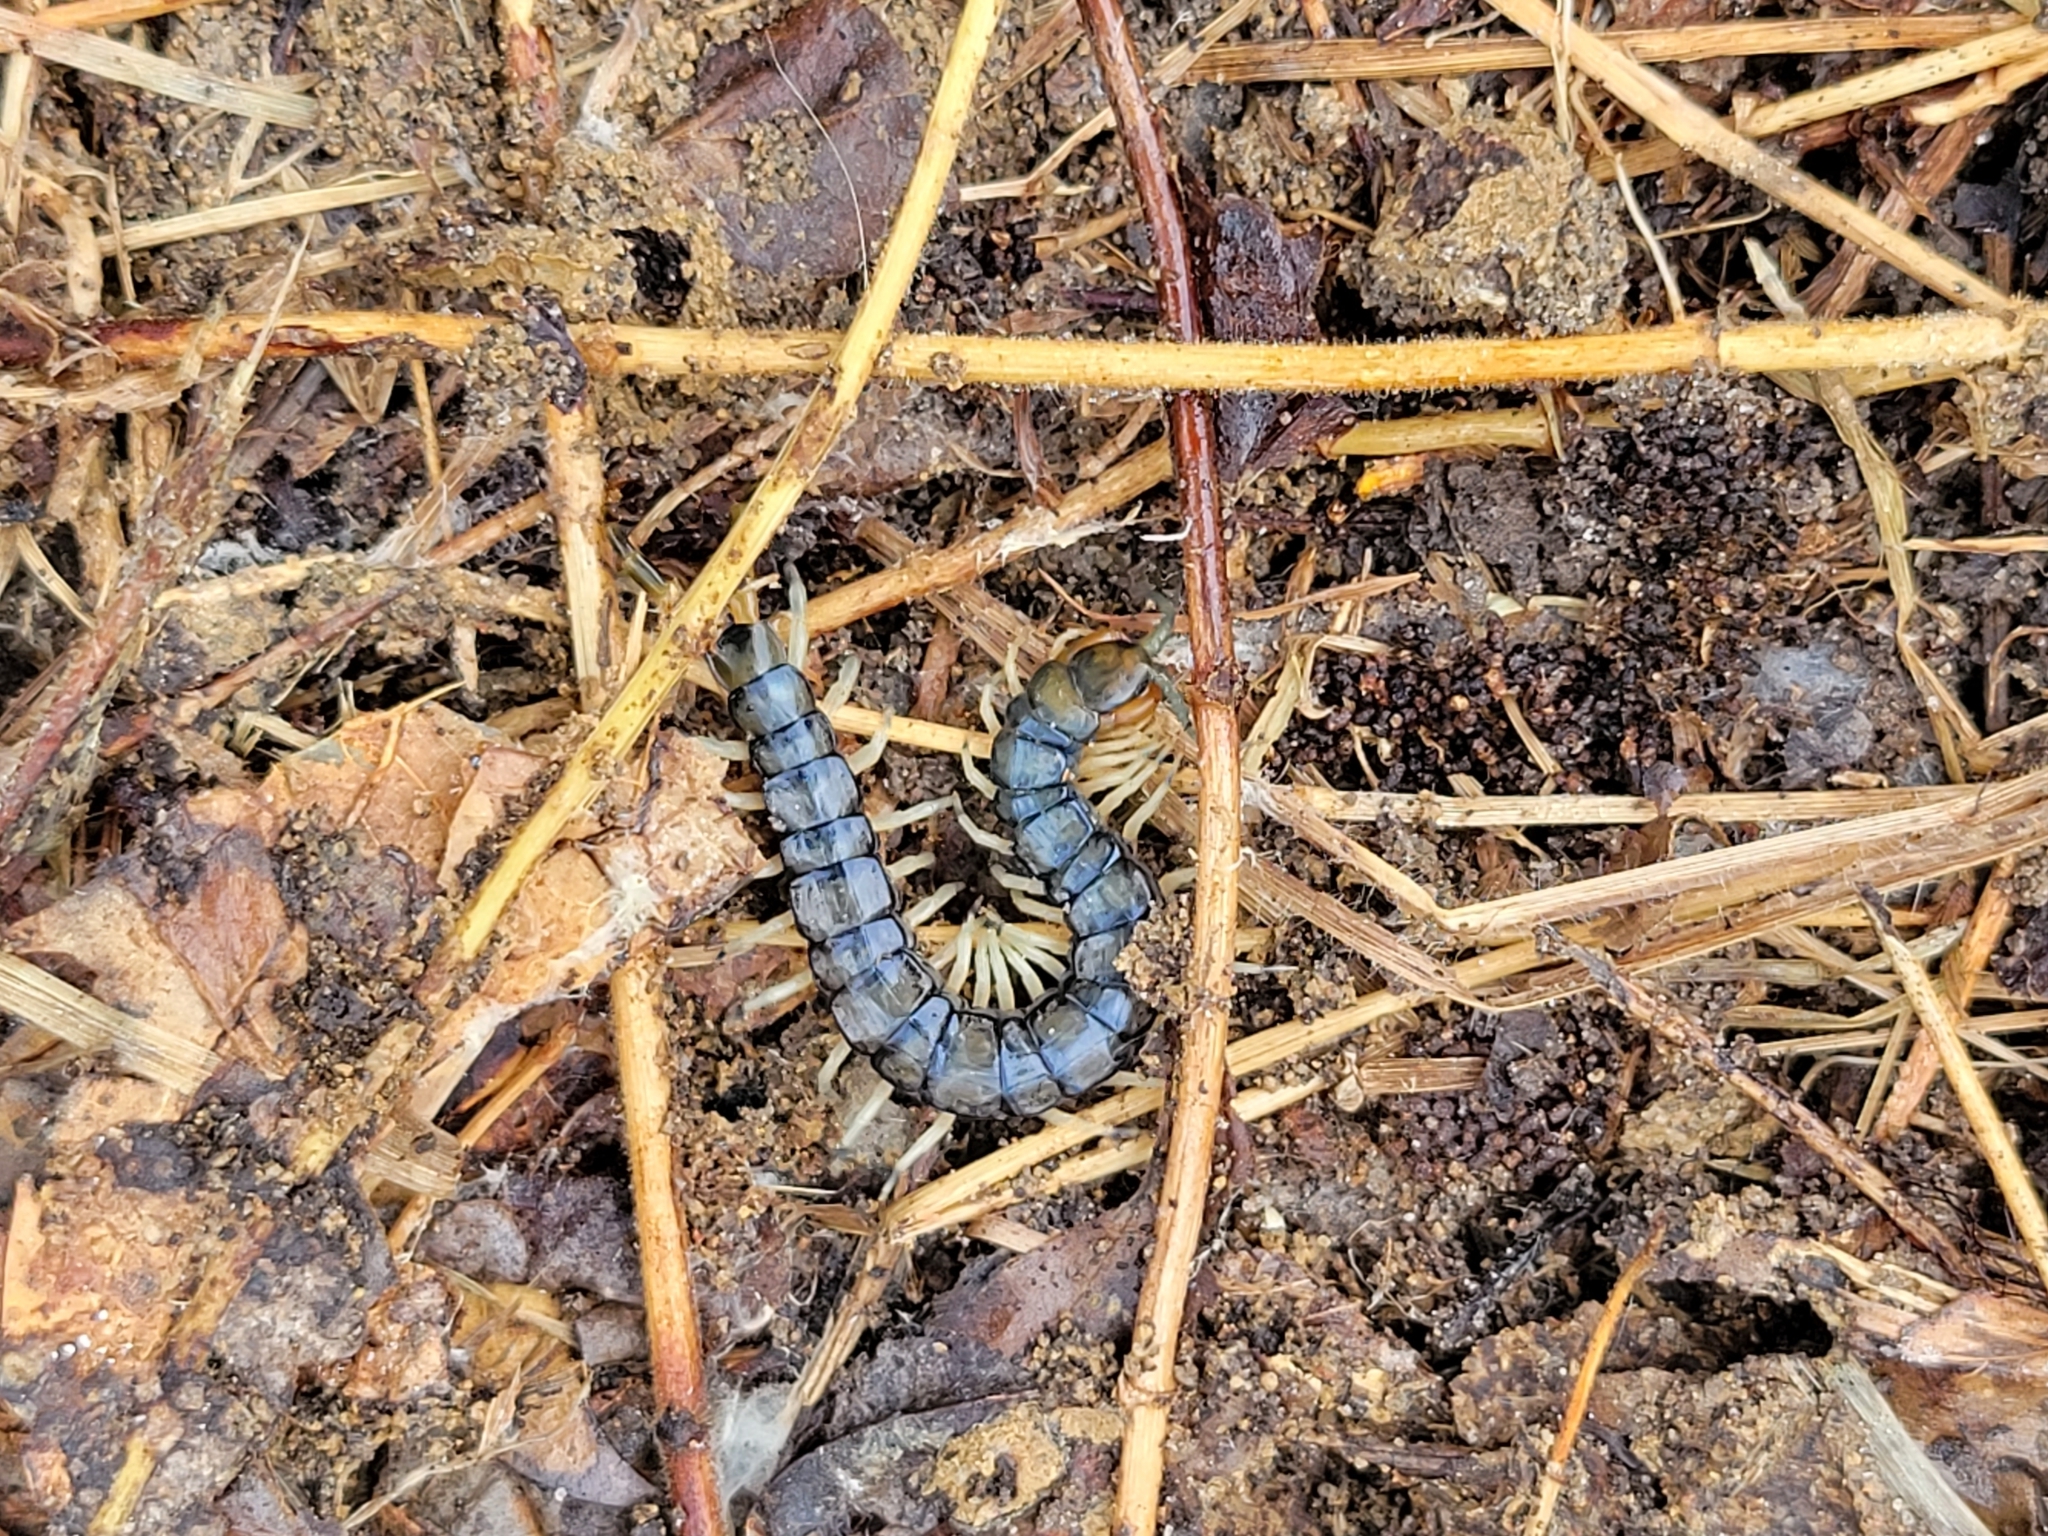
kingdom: Animalia
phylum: Arthropoda
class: Chilopoda
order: Scolopendromorpha
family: Scolopendridae
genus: Hemiscolopendra
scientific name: Hemiscolopendra marginata
